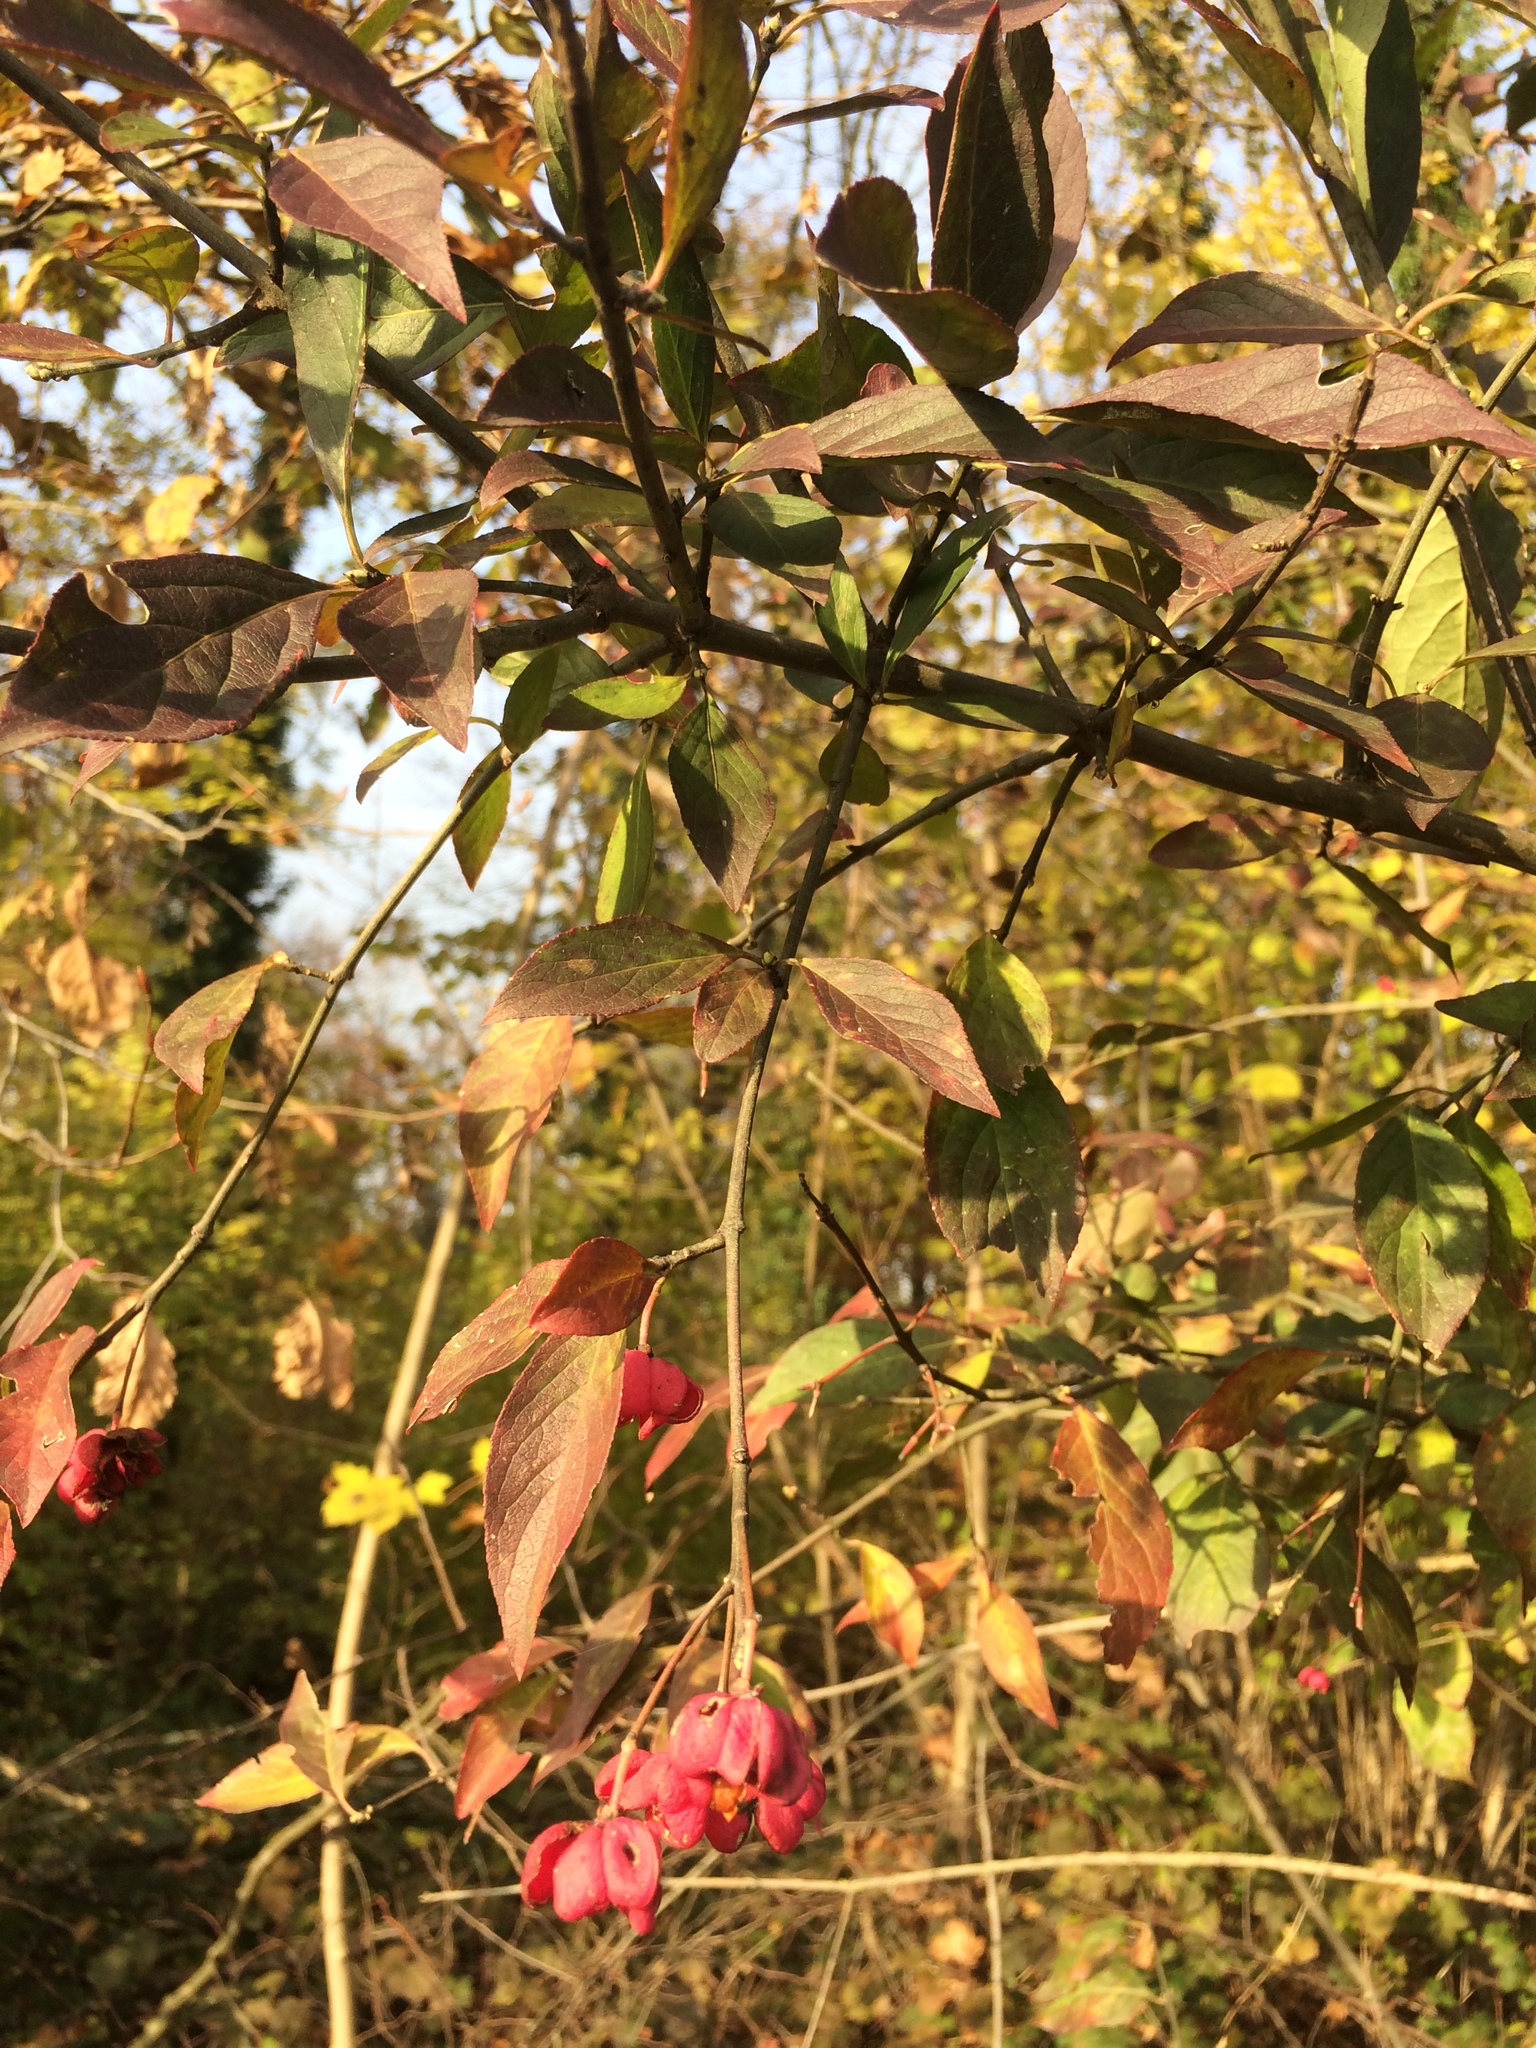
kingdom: Plantae
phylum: Tracheophyta
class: Magnoliopsida
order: Celastrales
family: Celastraceae
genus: Euonymus
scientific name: Euonymus europaeus
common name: Spindle
